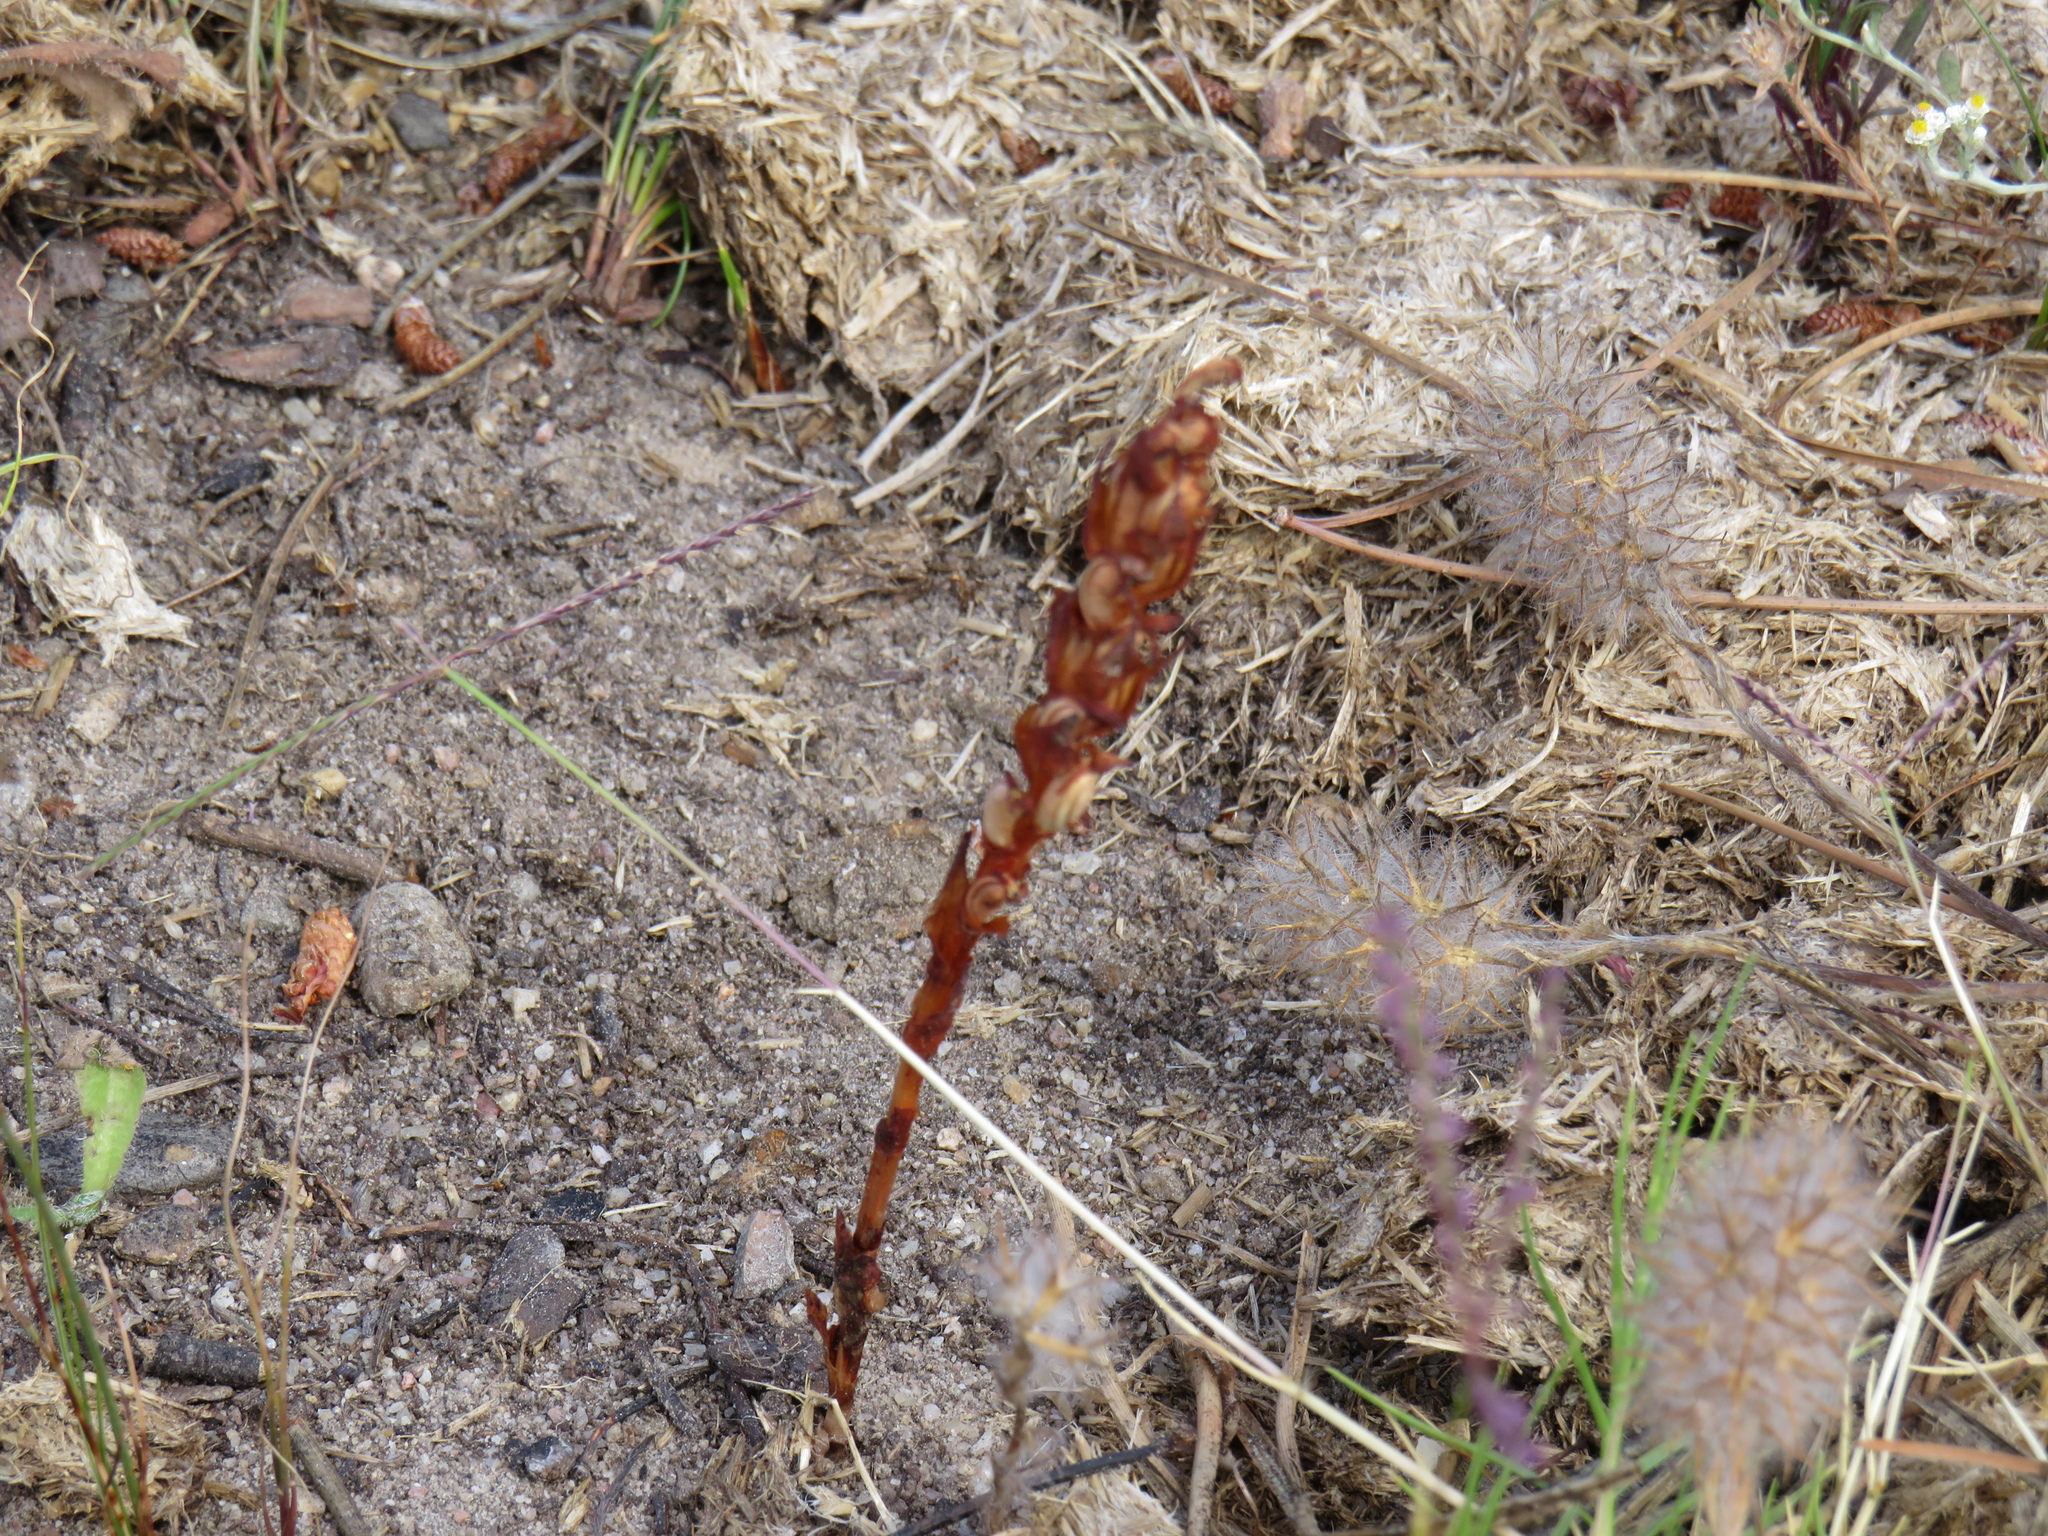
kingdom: Plantae
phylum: Tracheophyta
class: Liliopsida
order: Asparagales
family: Orchidaceae
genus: Disa
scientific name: Disa bracteata
